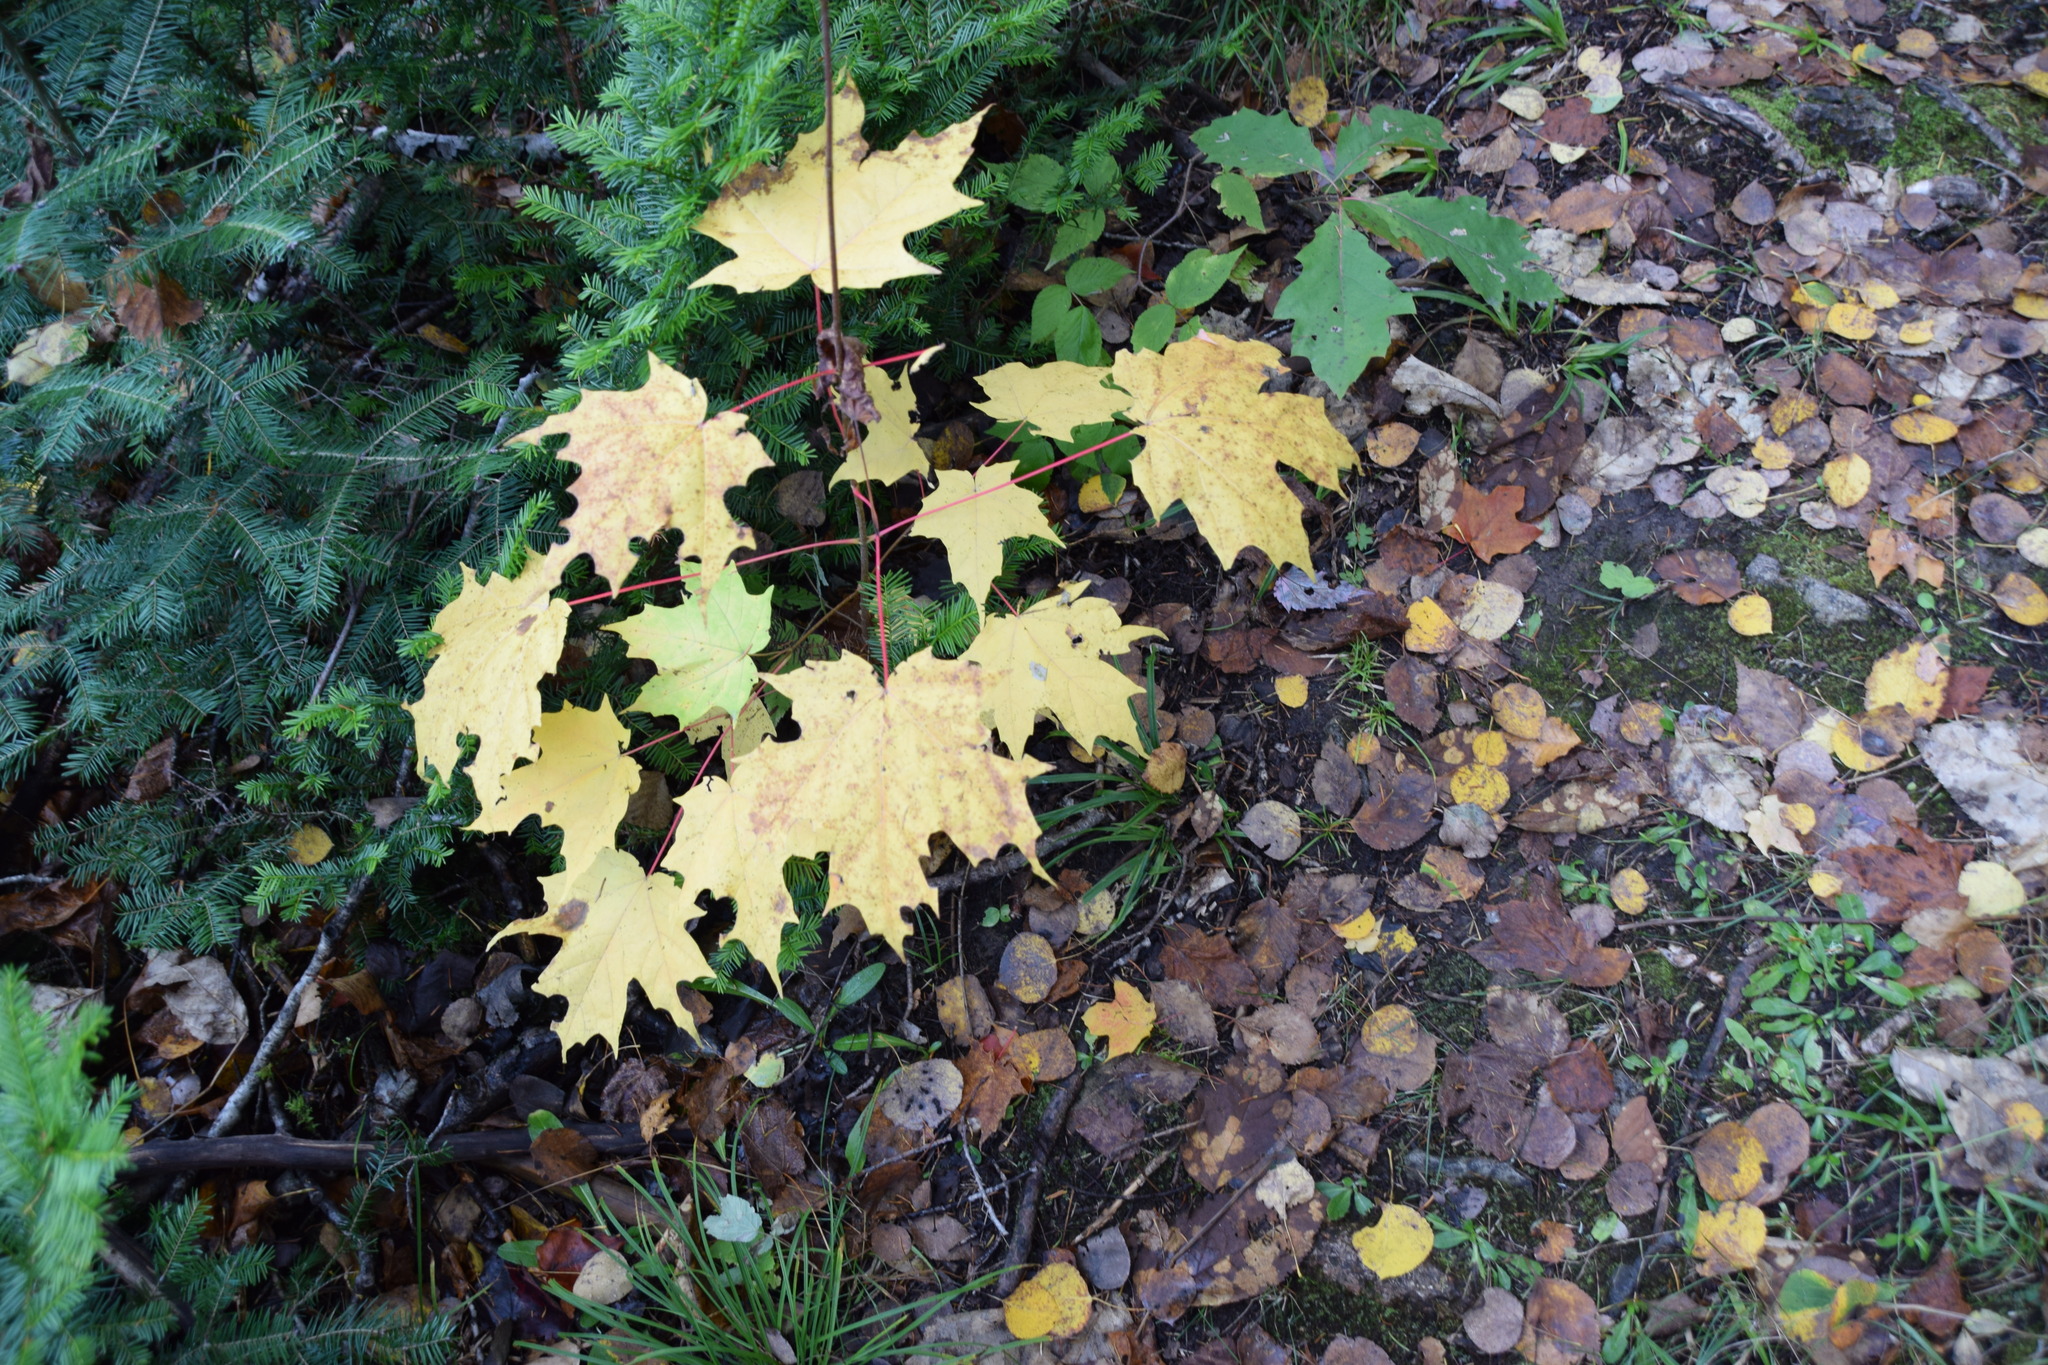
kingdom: Plantae
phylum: Tracheophyta
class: Magnoliopsida
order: Sapindales
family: Sapindaceae
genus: Acer
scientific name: Acer saccharum
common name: Sugar maple
